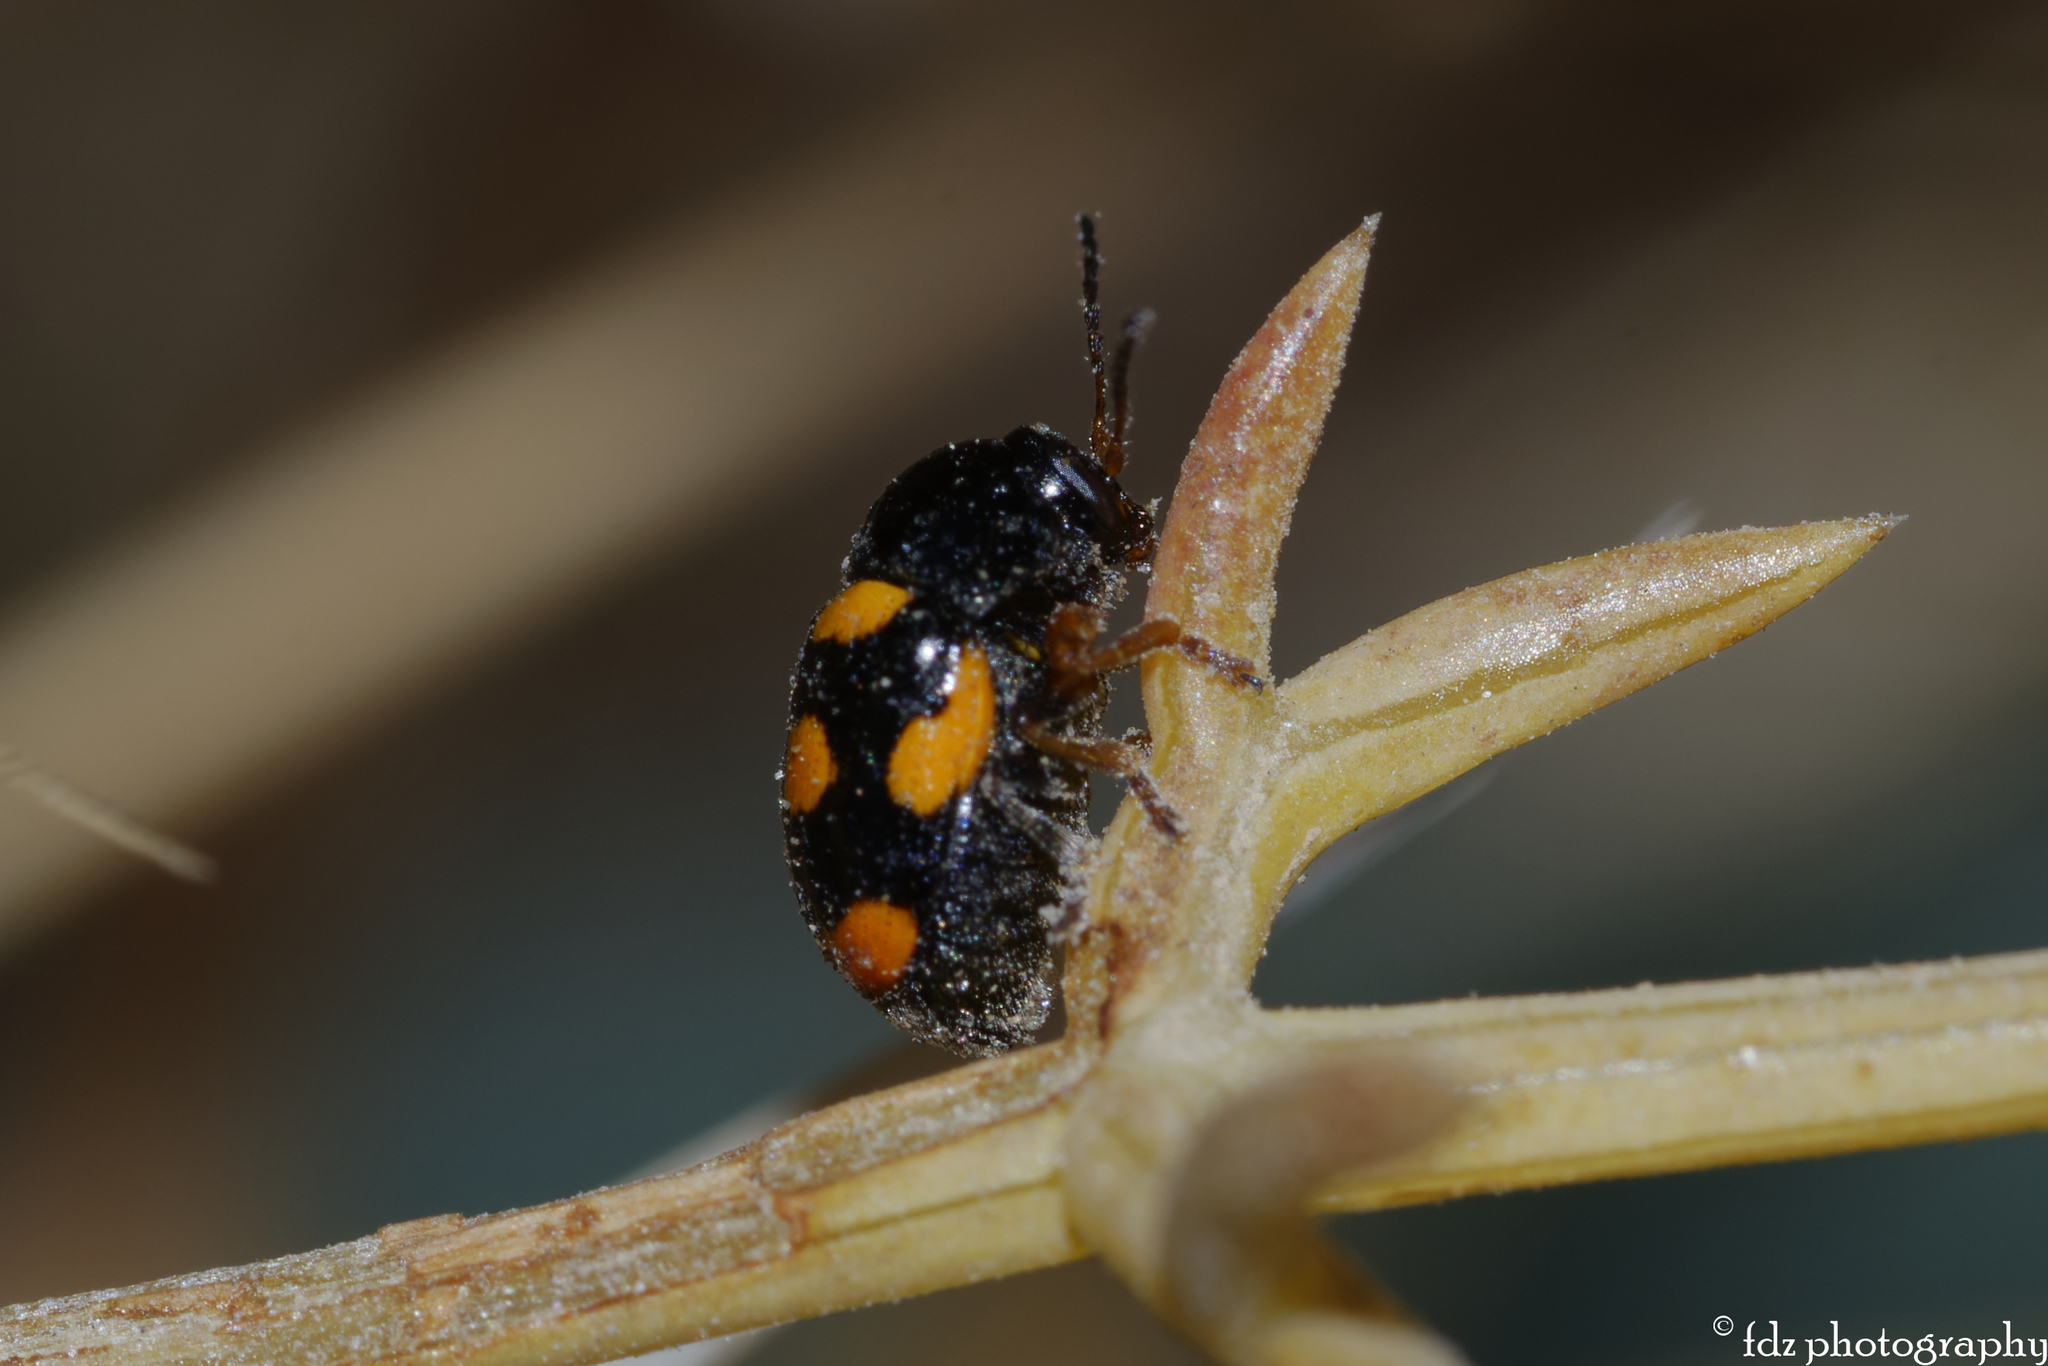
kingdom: Animalia
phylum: Arthropoda
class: Insecta
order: Coleoptera
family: Chrysomelidae
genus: Cryptocephalus
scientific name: Cryptocephalus octoguttatus
